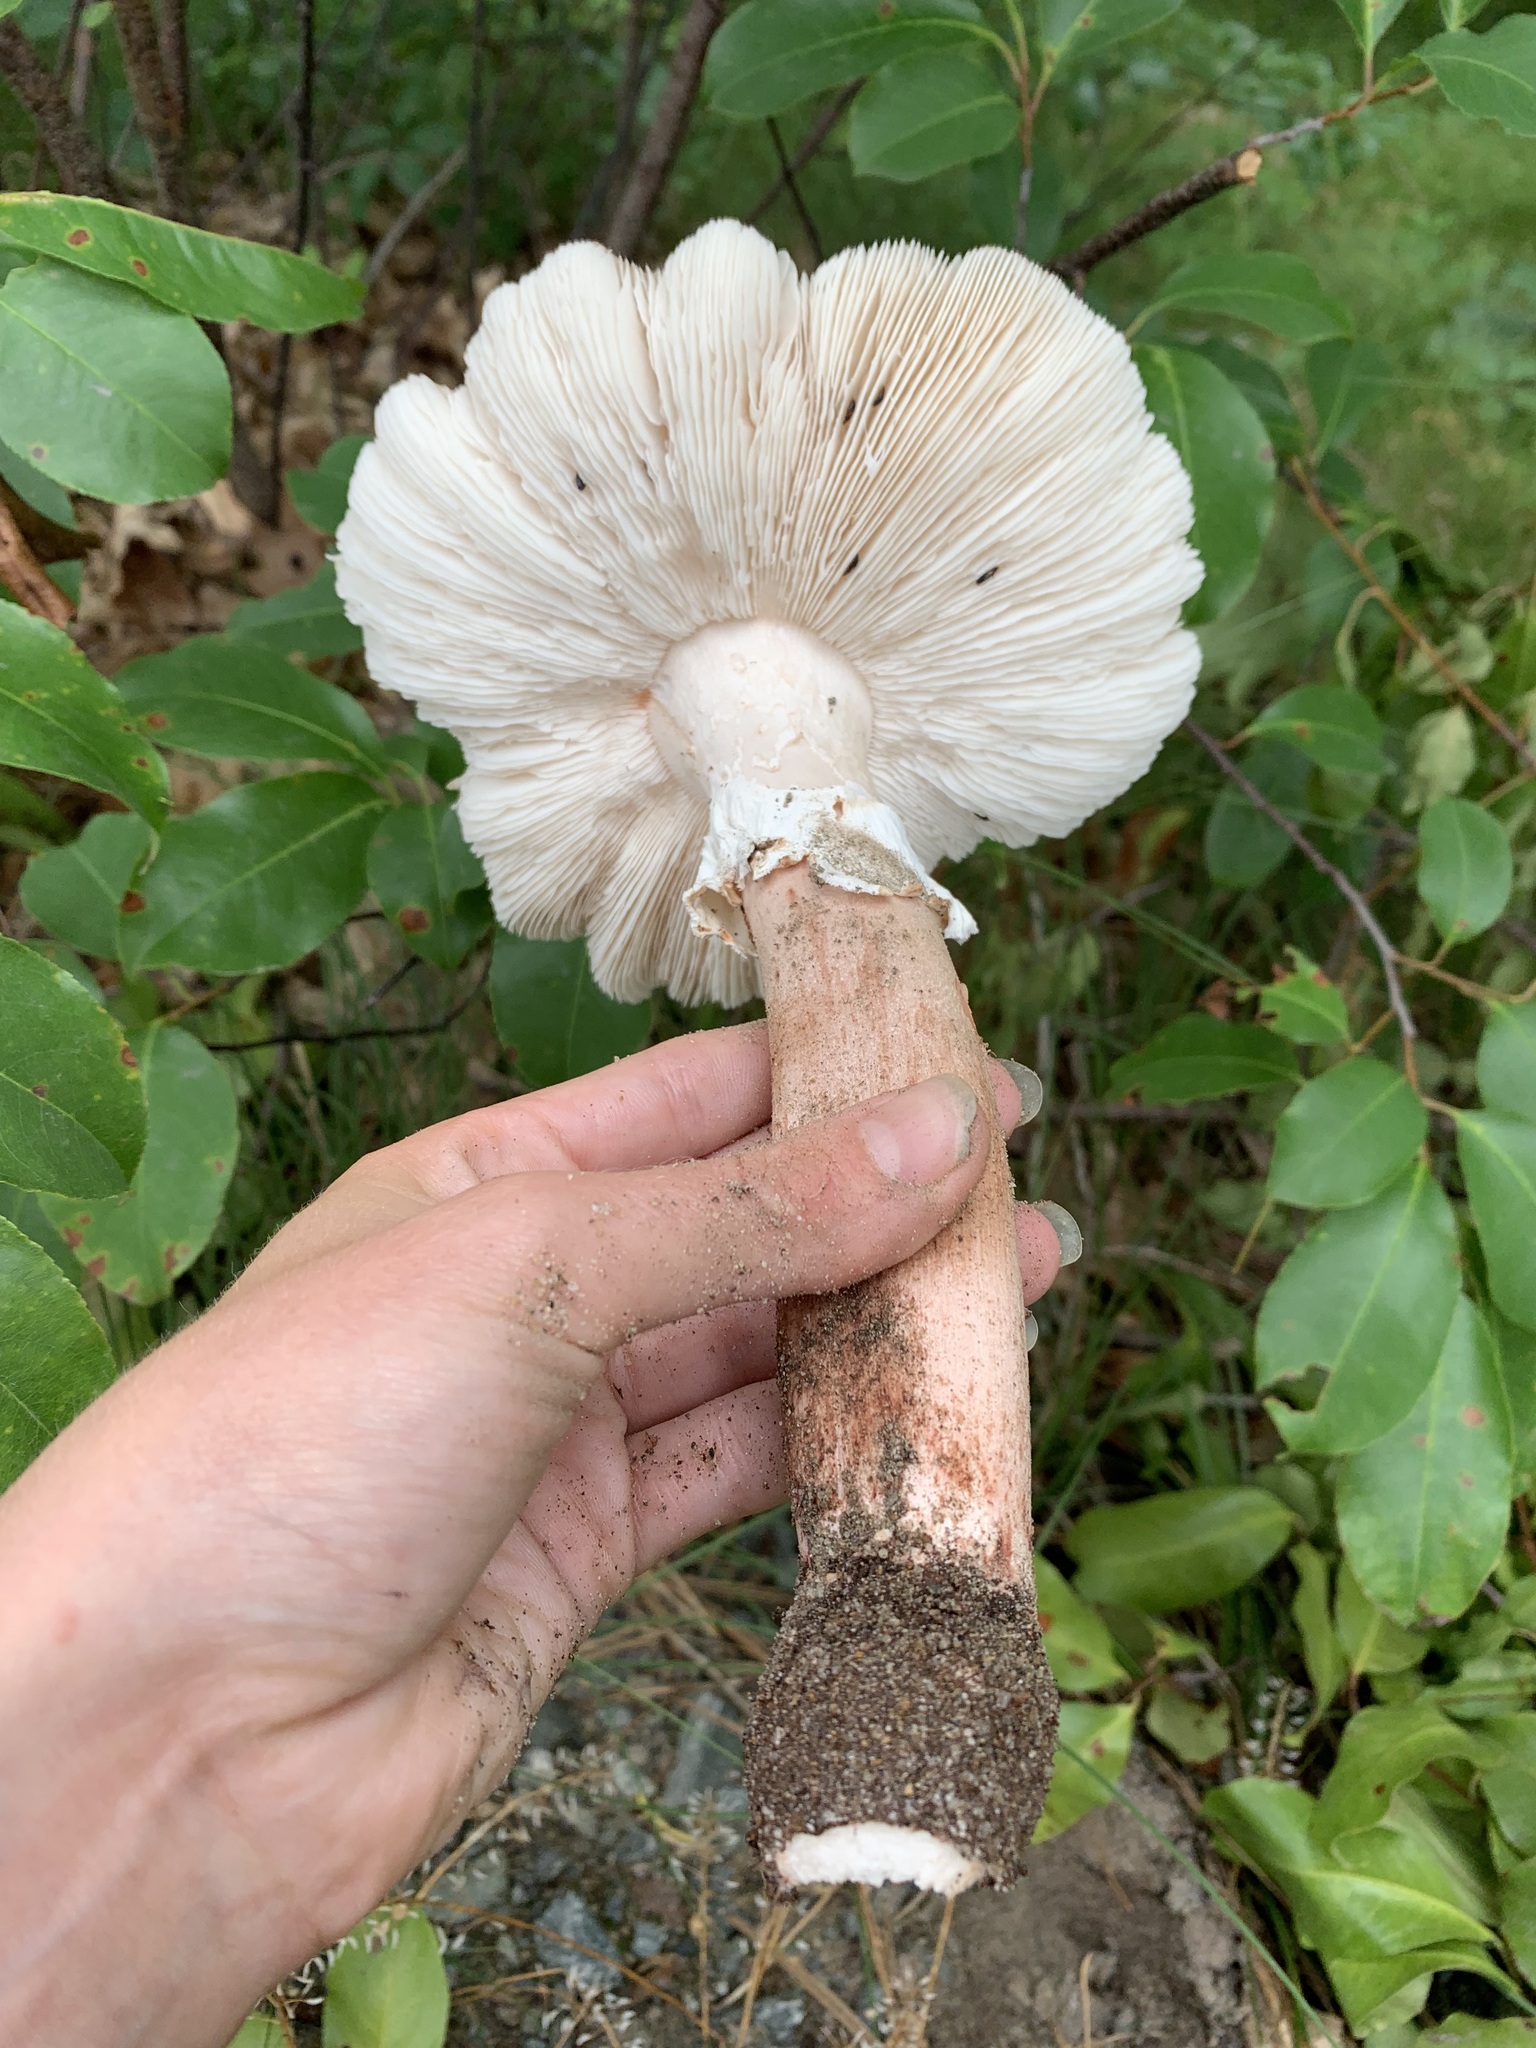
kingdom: Fungi
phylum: Basidiomycota
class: Agaricomycetes
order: Agaricales
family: Amanitaceae
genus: Amanita
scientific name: Amanita
